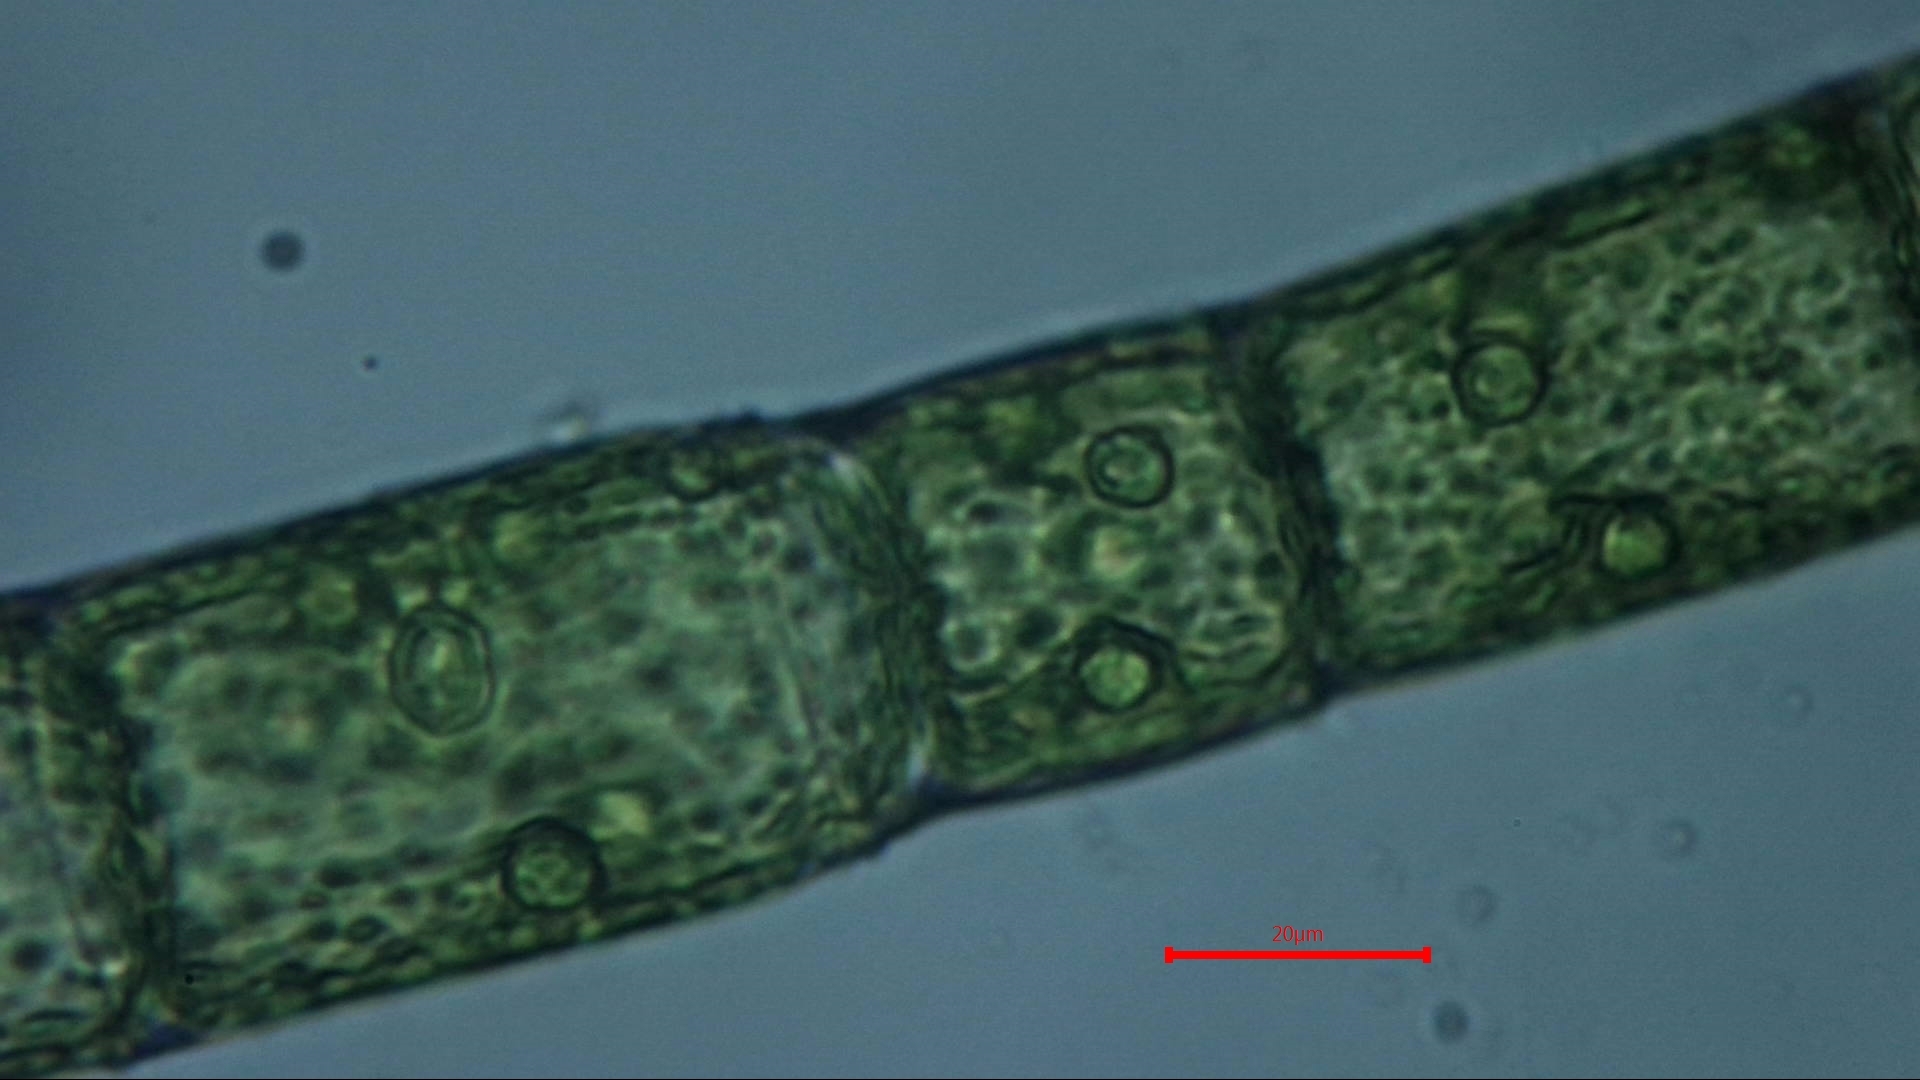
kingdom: Plantae
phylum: Chlorophyta
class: Chlorophyceae
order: Oedogoniales
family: Oedogoniaceae
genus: Oedogonium
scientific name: Oedogonium
